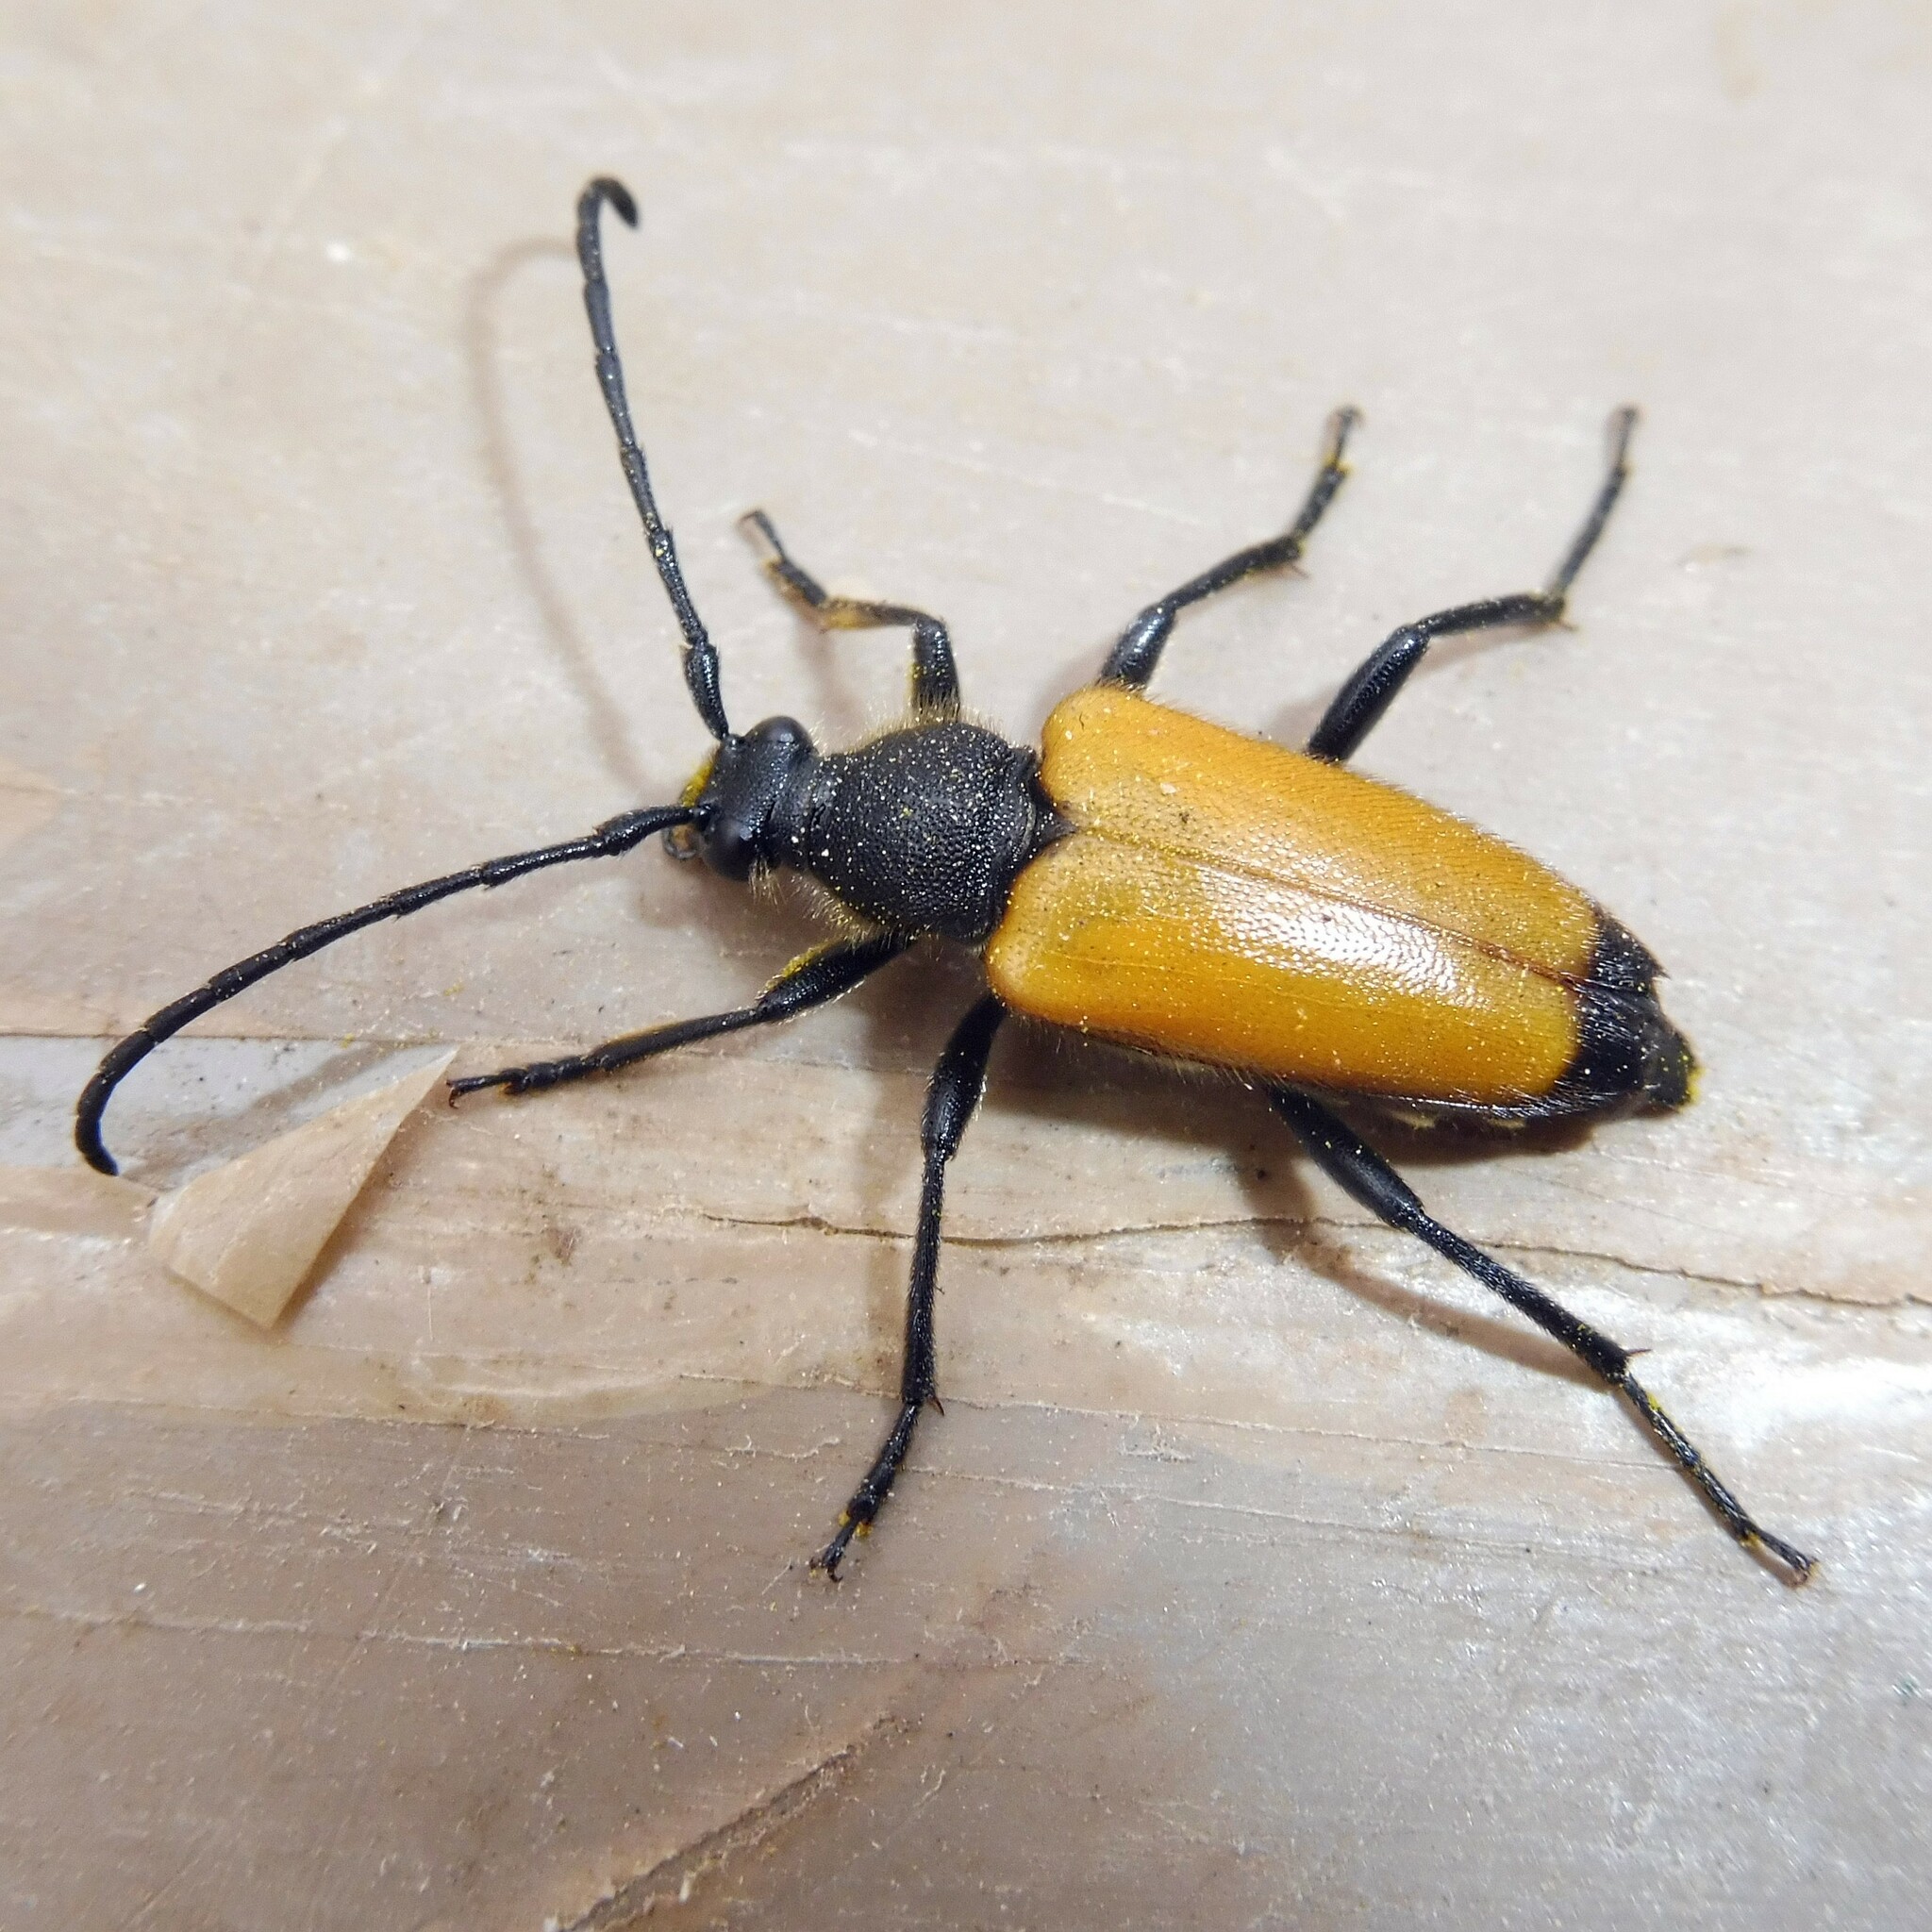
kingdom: Animalia
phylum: Arthropoda
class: Insecta
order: Coleoptera
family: Cerambycidae
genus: Paracorymbia
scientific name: Paracorymbia fulva
